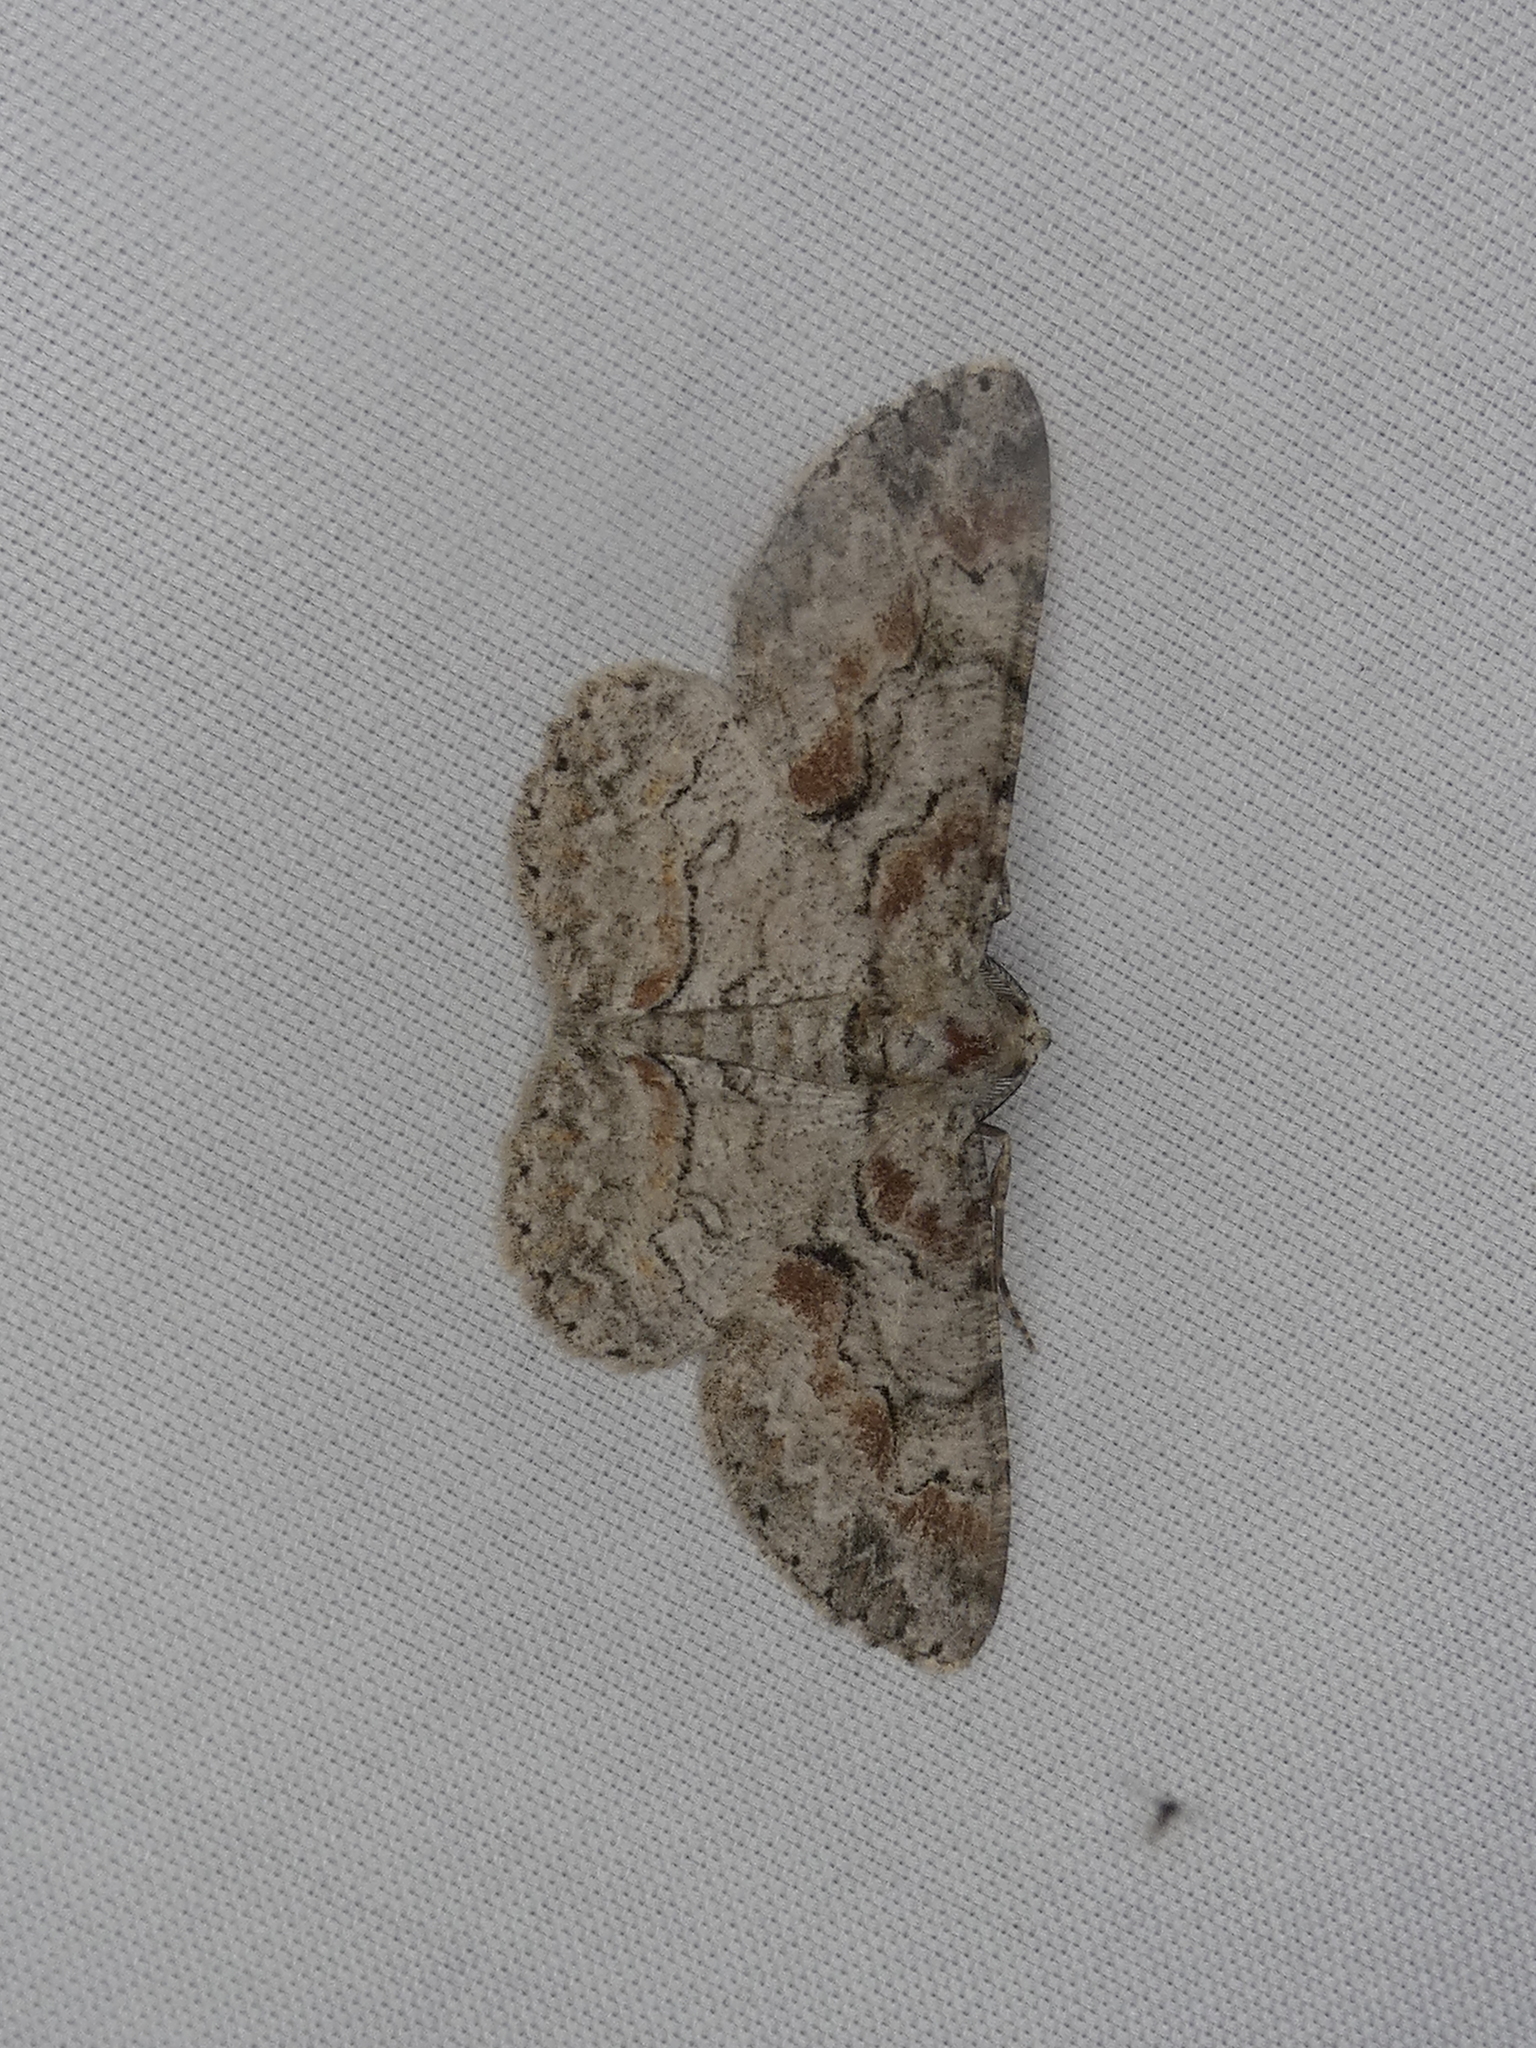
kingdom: Animalia
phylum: Arthropoda
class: Insecta
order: Lepidoptera
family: Geometridae
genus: Iridopsis
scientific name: Iridopsis defectaria
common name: Brown-shaded gray
